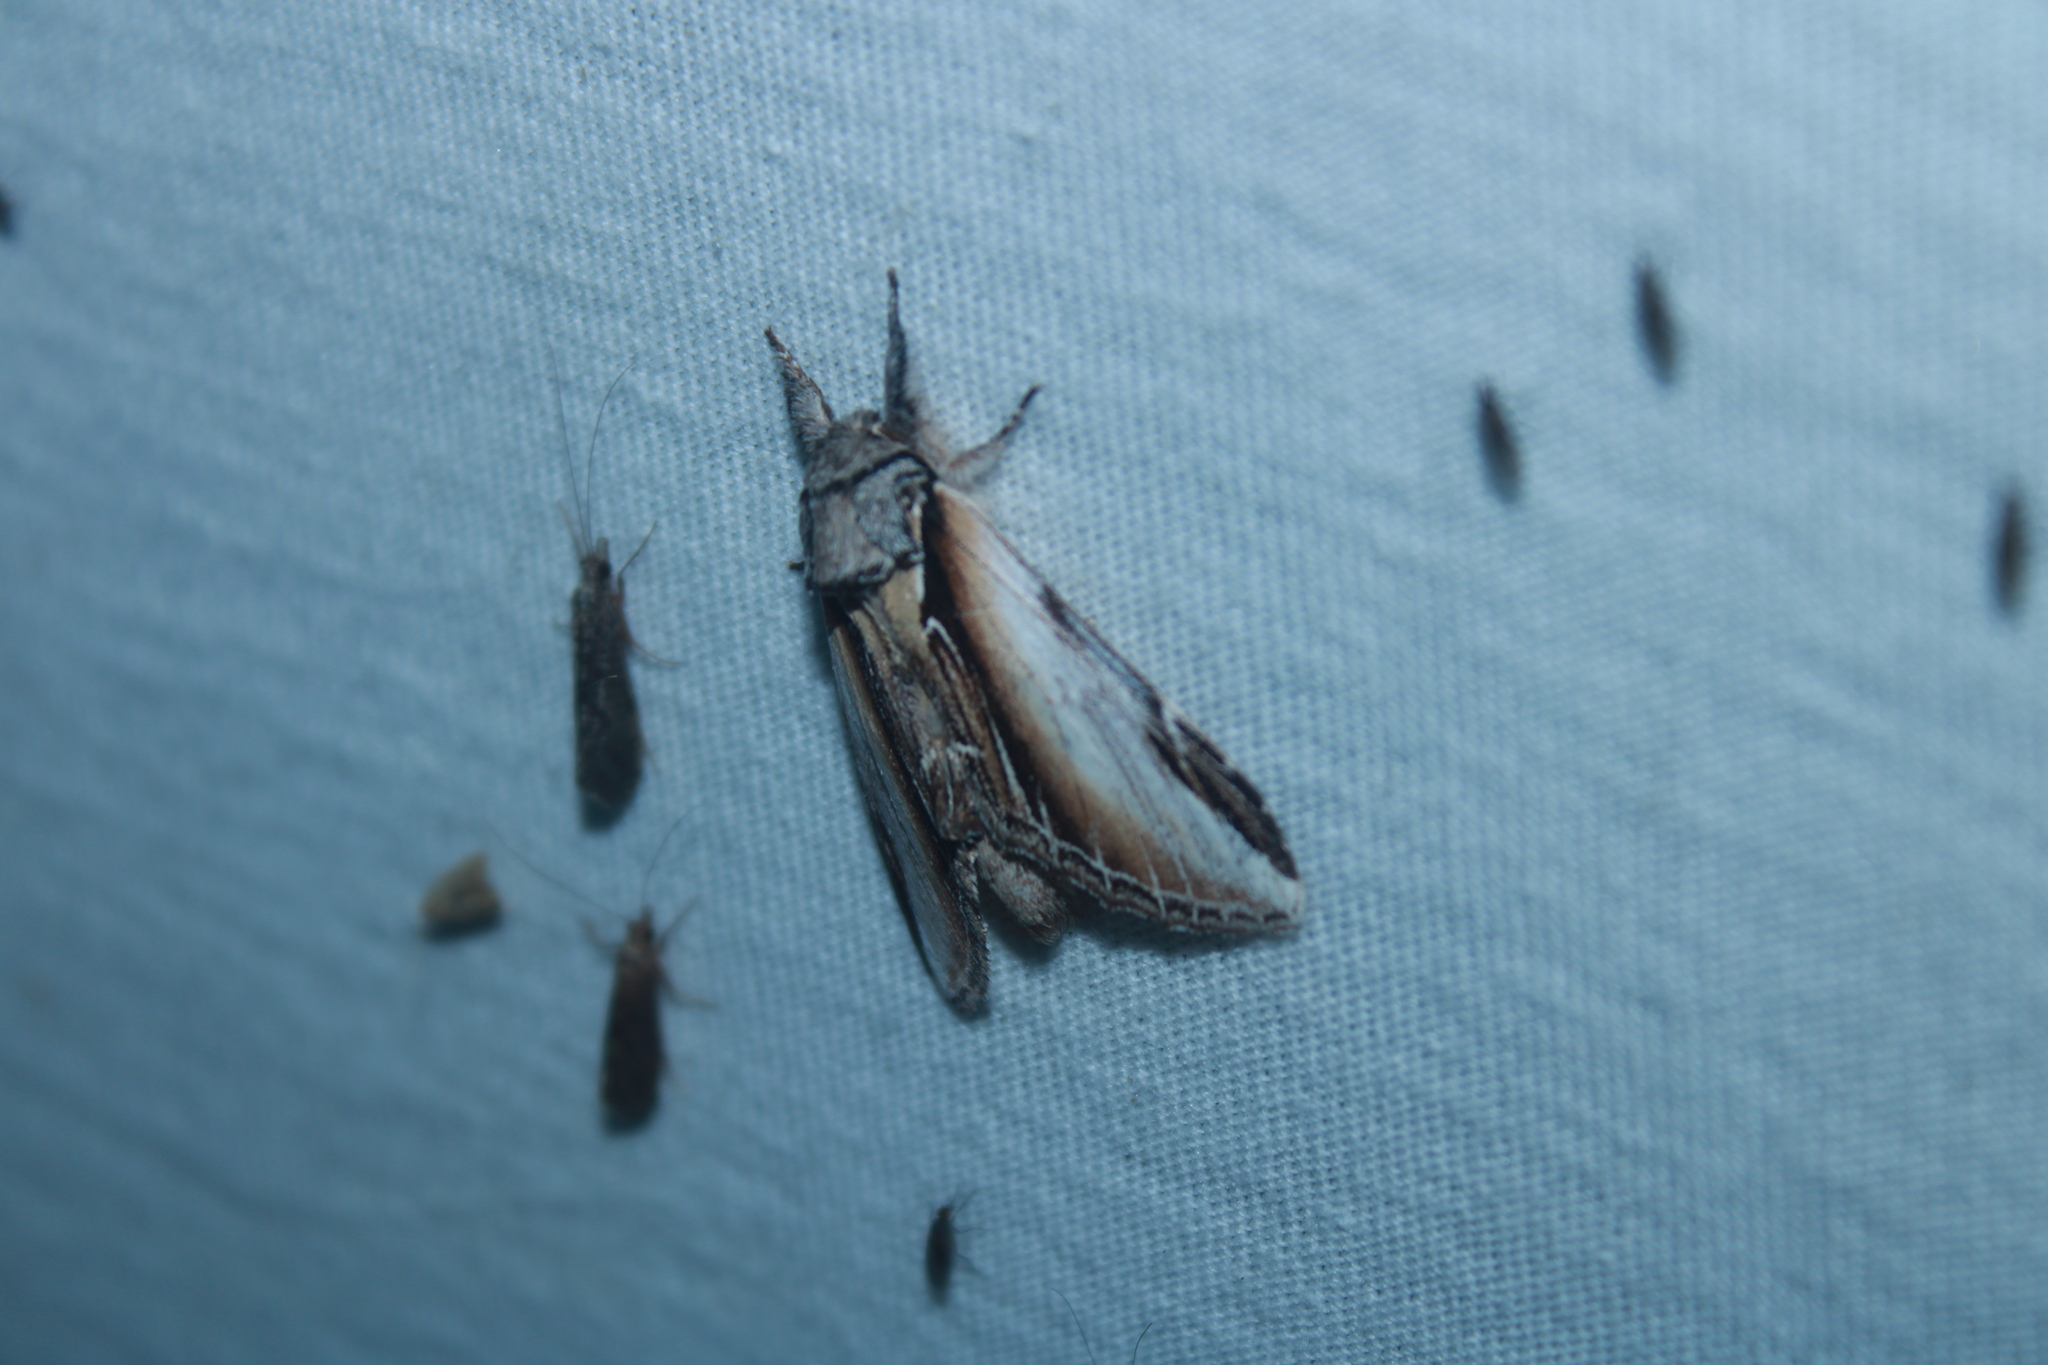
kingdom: Animalia
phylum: Arthropoda
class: Insecta
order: Lepidoptera
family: Notodontidae
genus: Pheosia
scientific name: Pheosia rimosa
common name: Black-rimmed prominent
